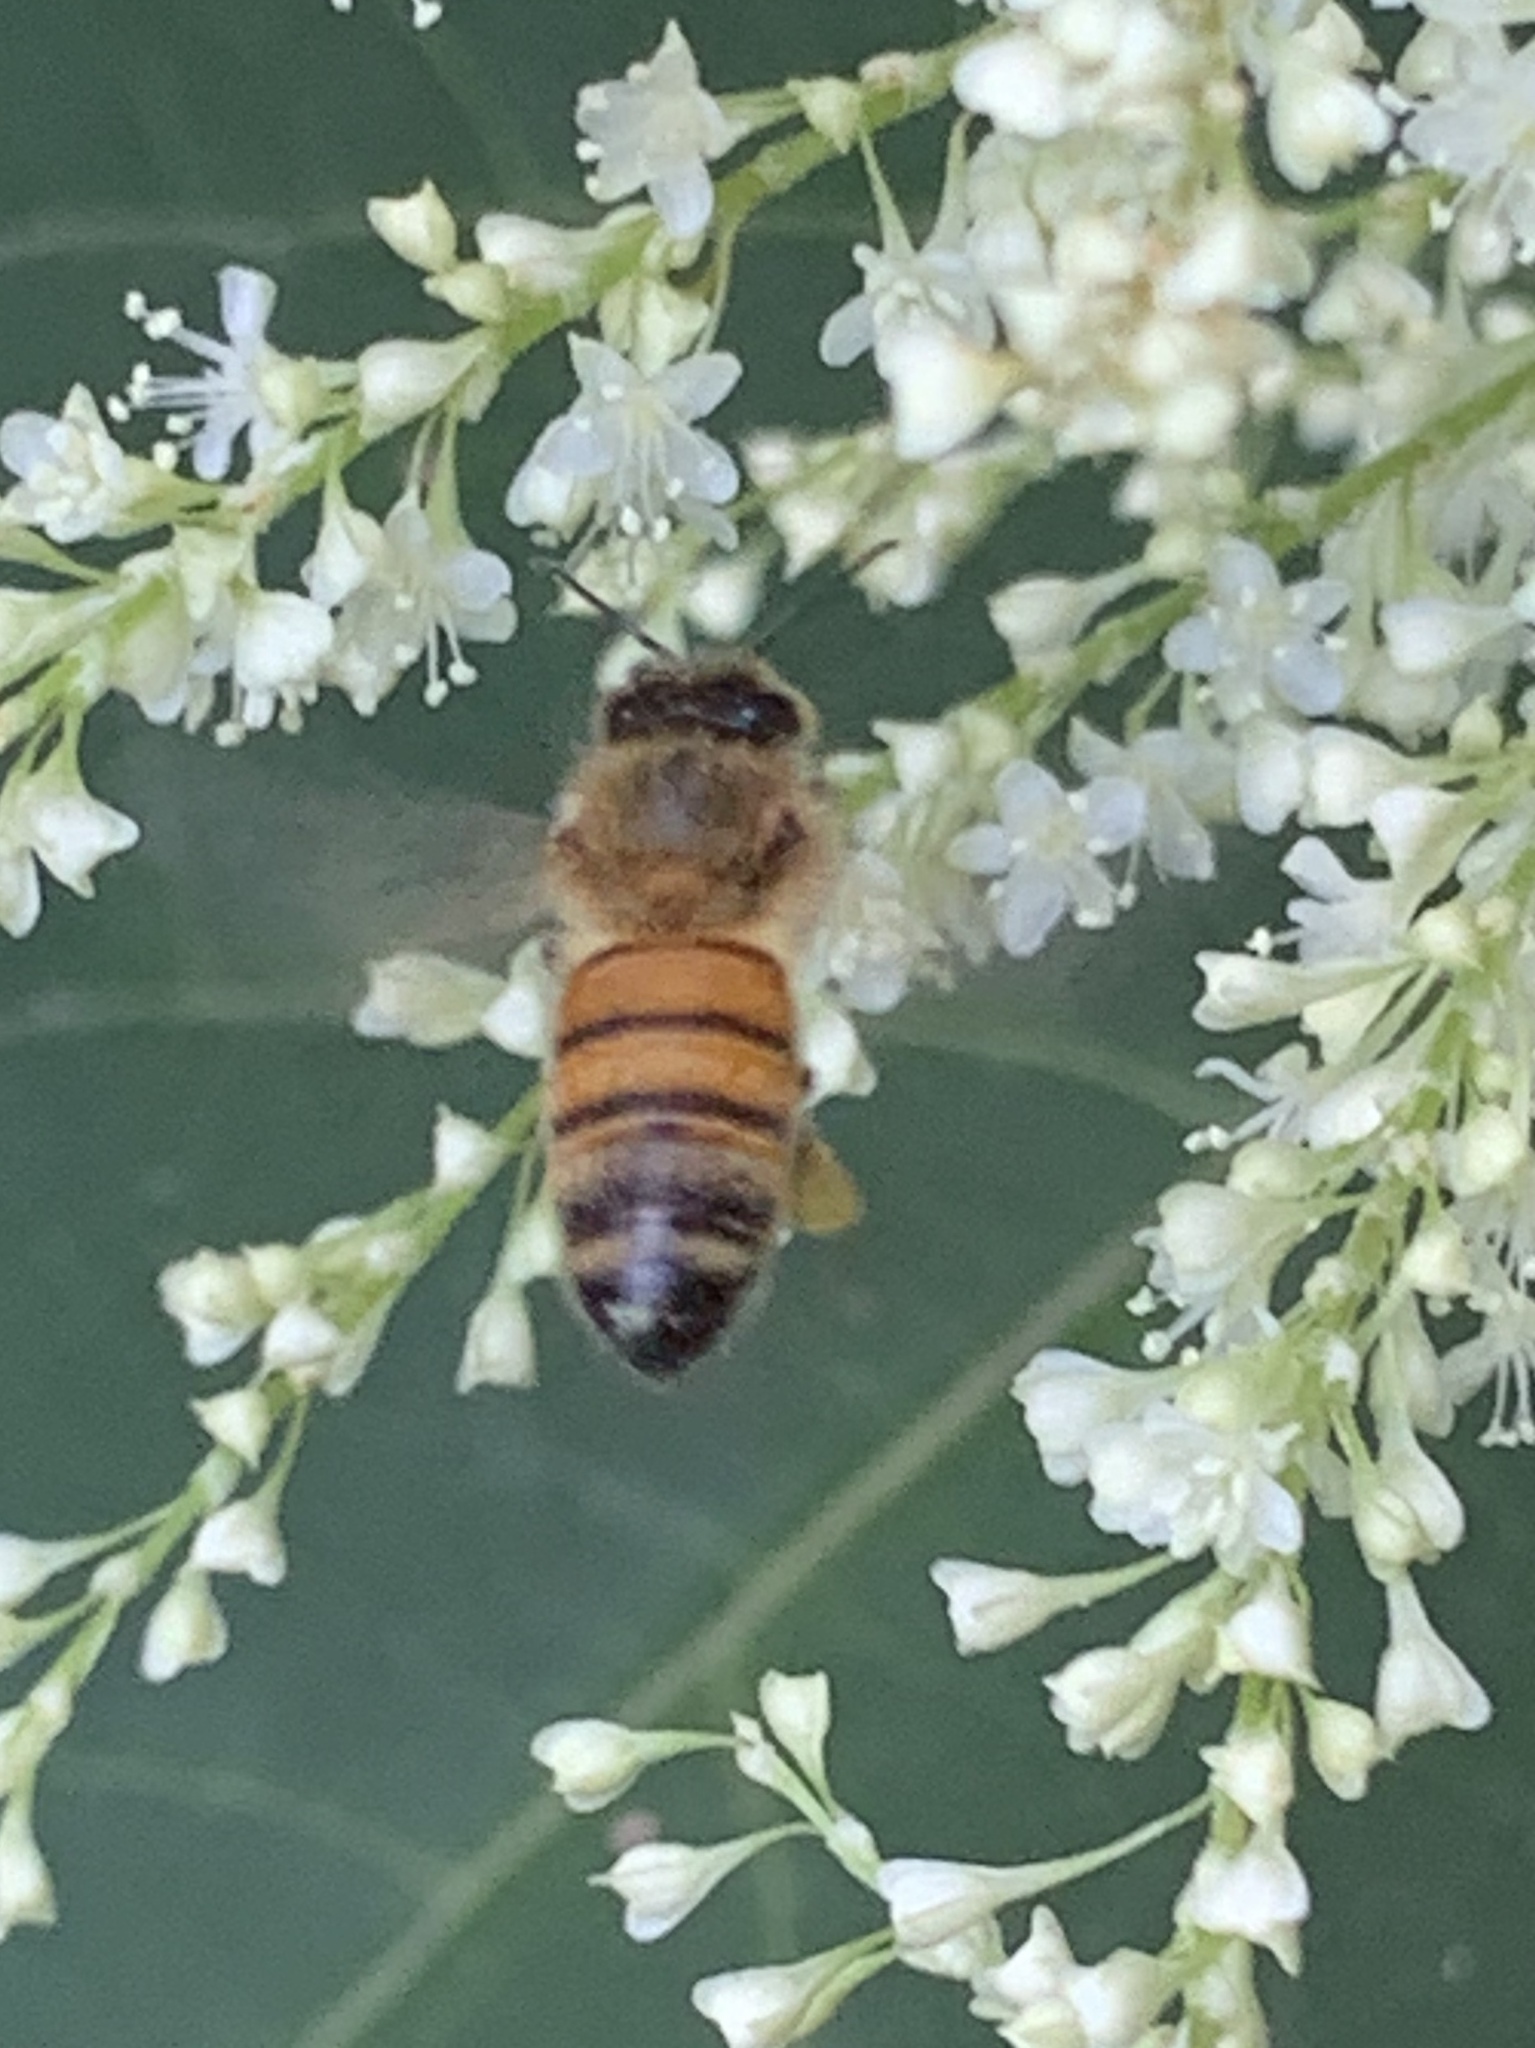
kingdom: Animalia
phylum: Arthropoda
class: Insecta
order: Hymenoptera
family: Apidae
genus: Apis
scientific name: Apis mellifera
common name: Honey bee
